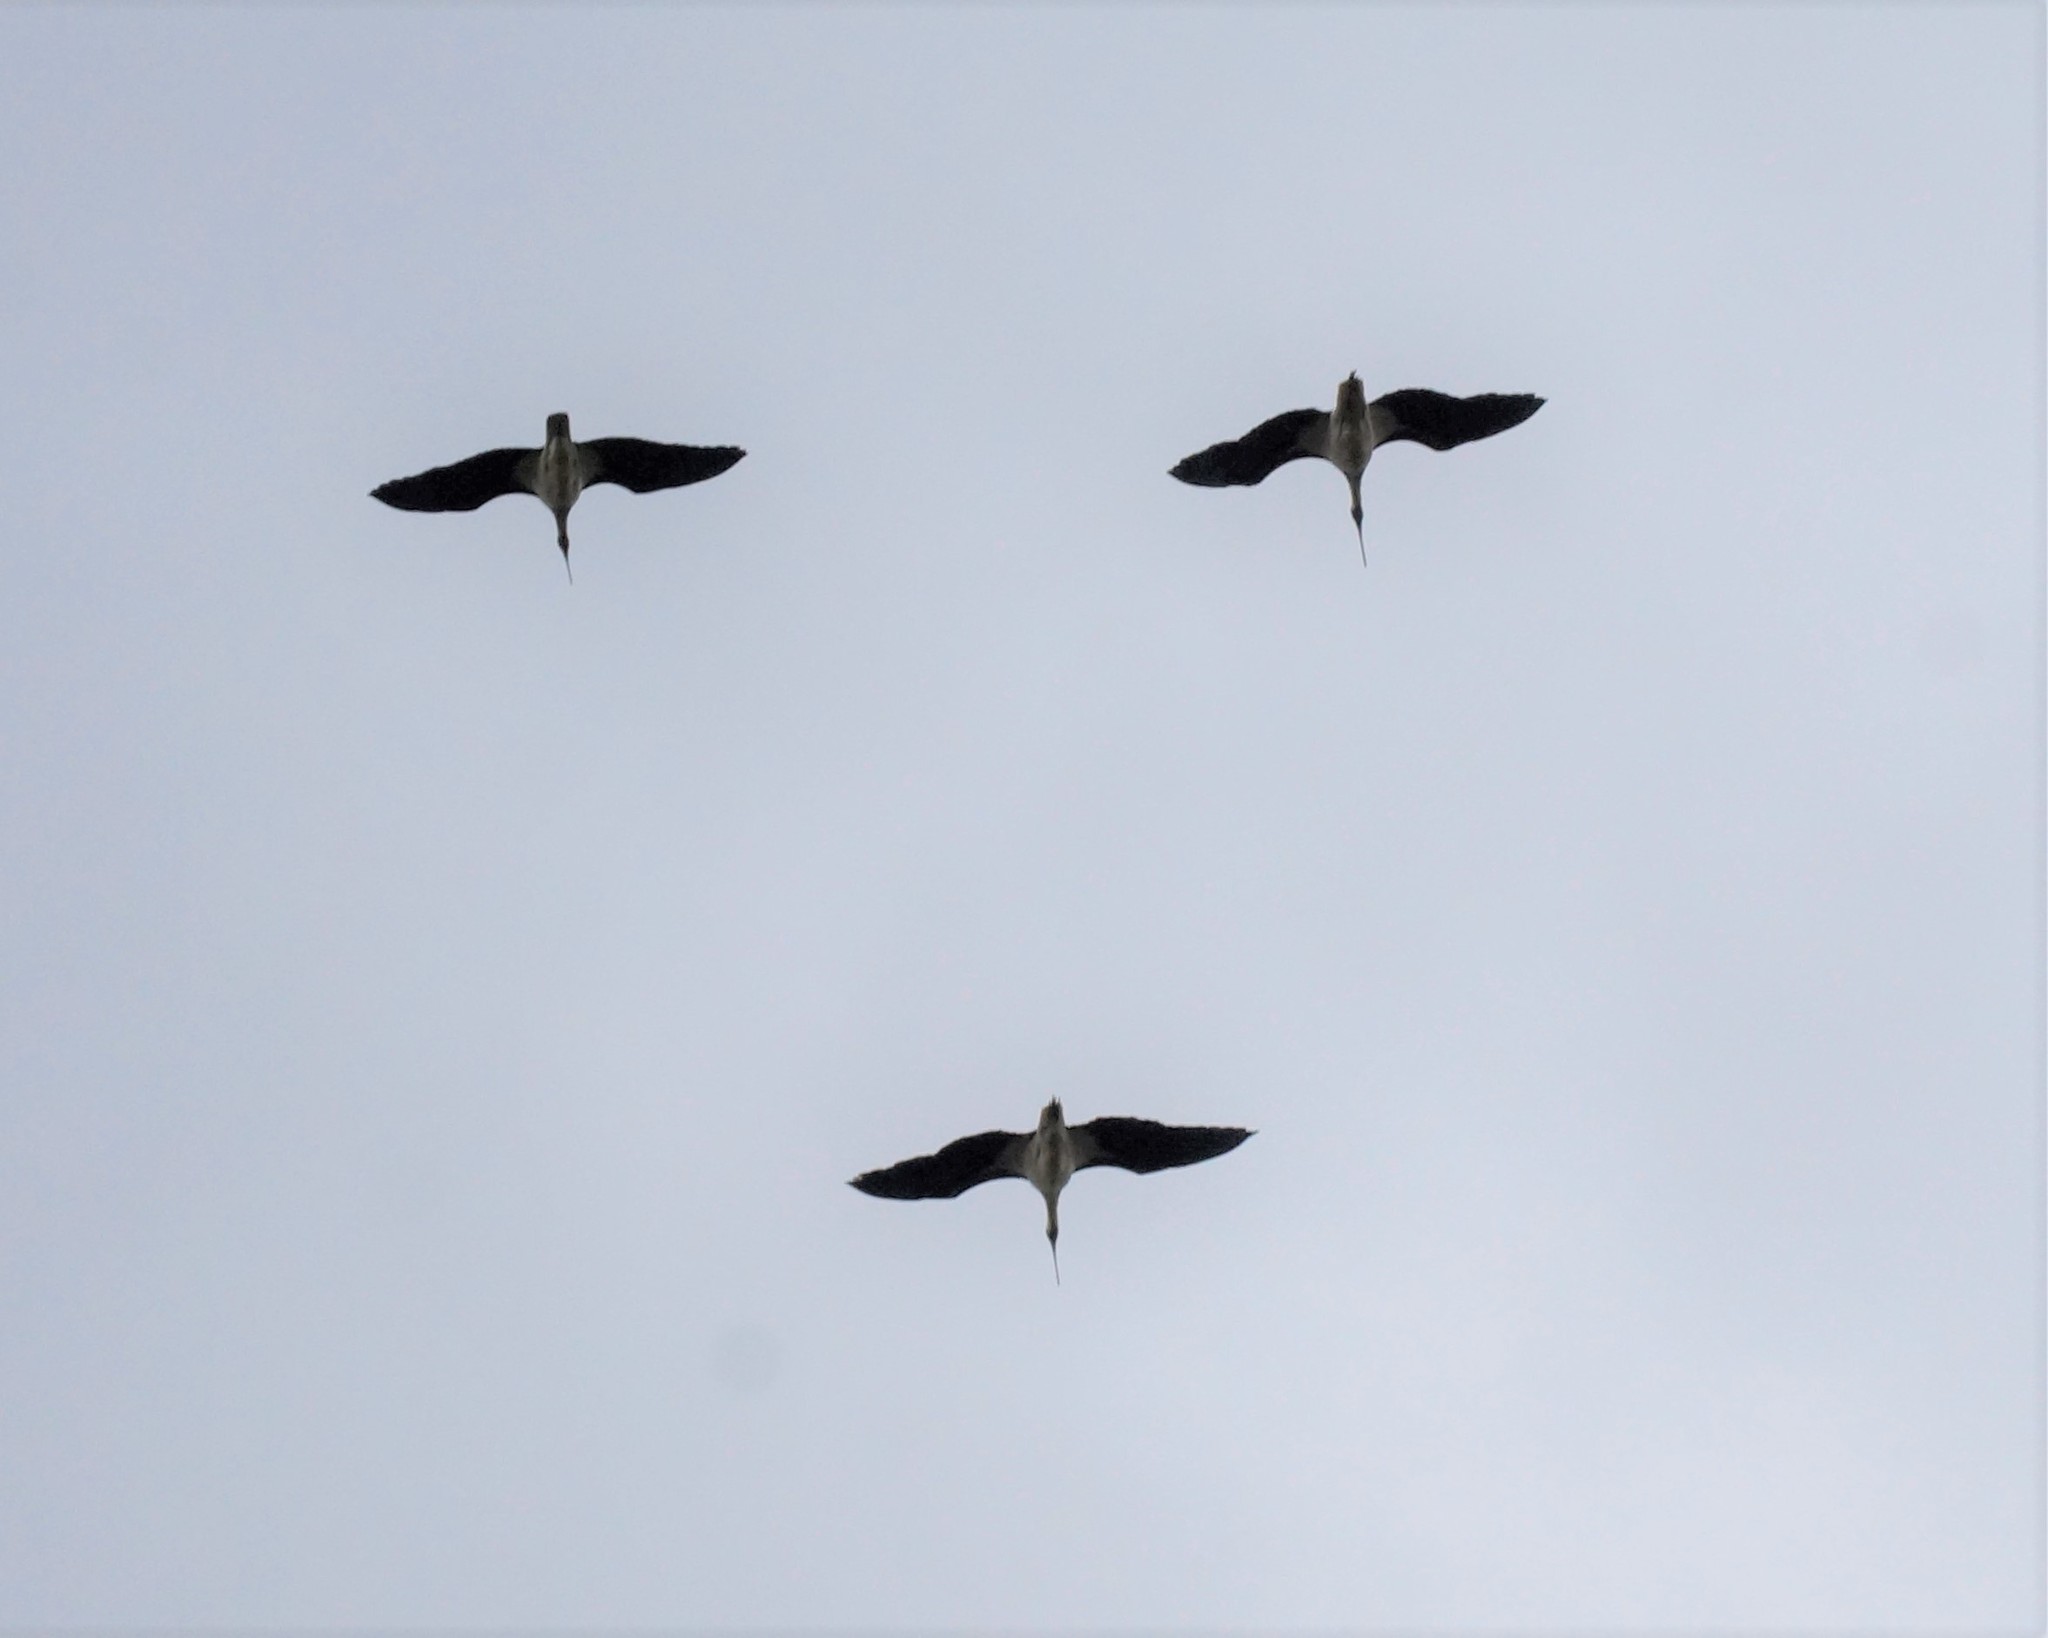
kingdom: Animalia
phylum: Chordata
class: Aves
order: Pelecaniformes
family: Threskiornithidae
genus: Threskiornis
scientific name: Threskiornis spinicollis
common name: Straw-necked ibis
